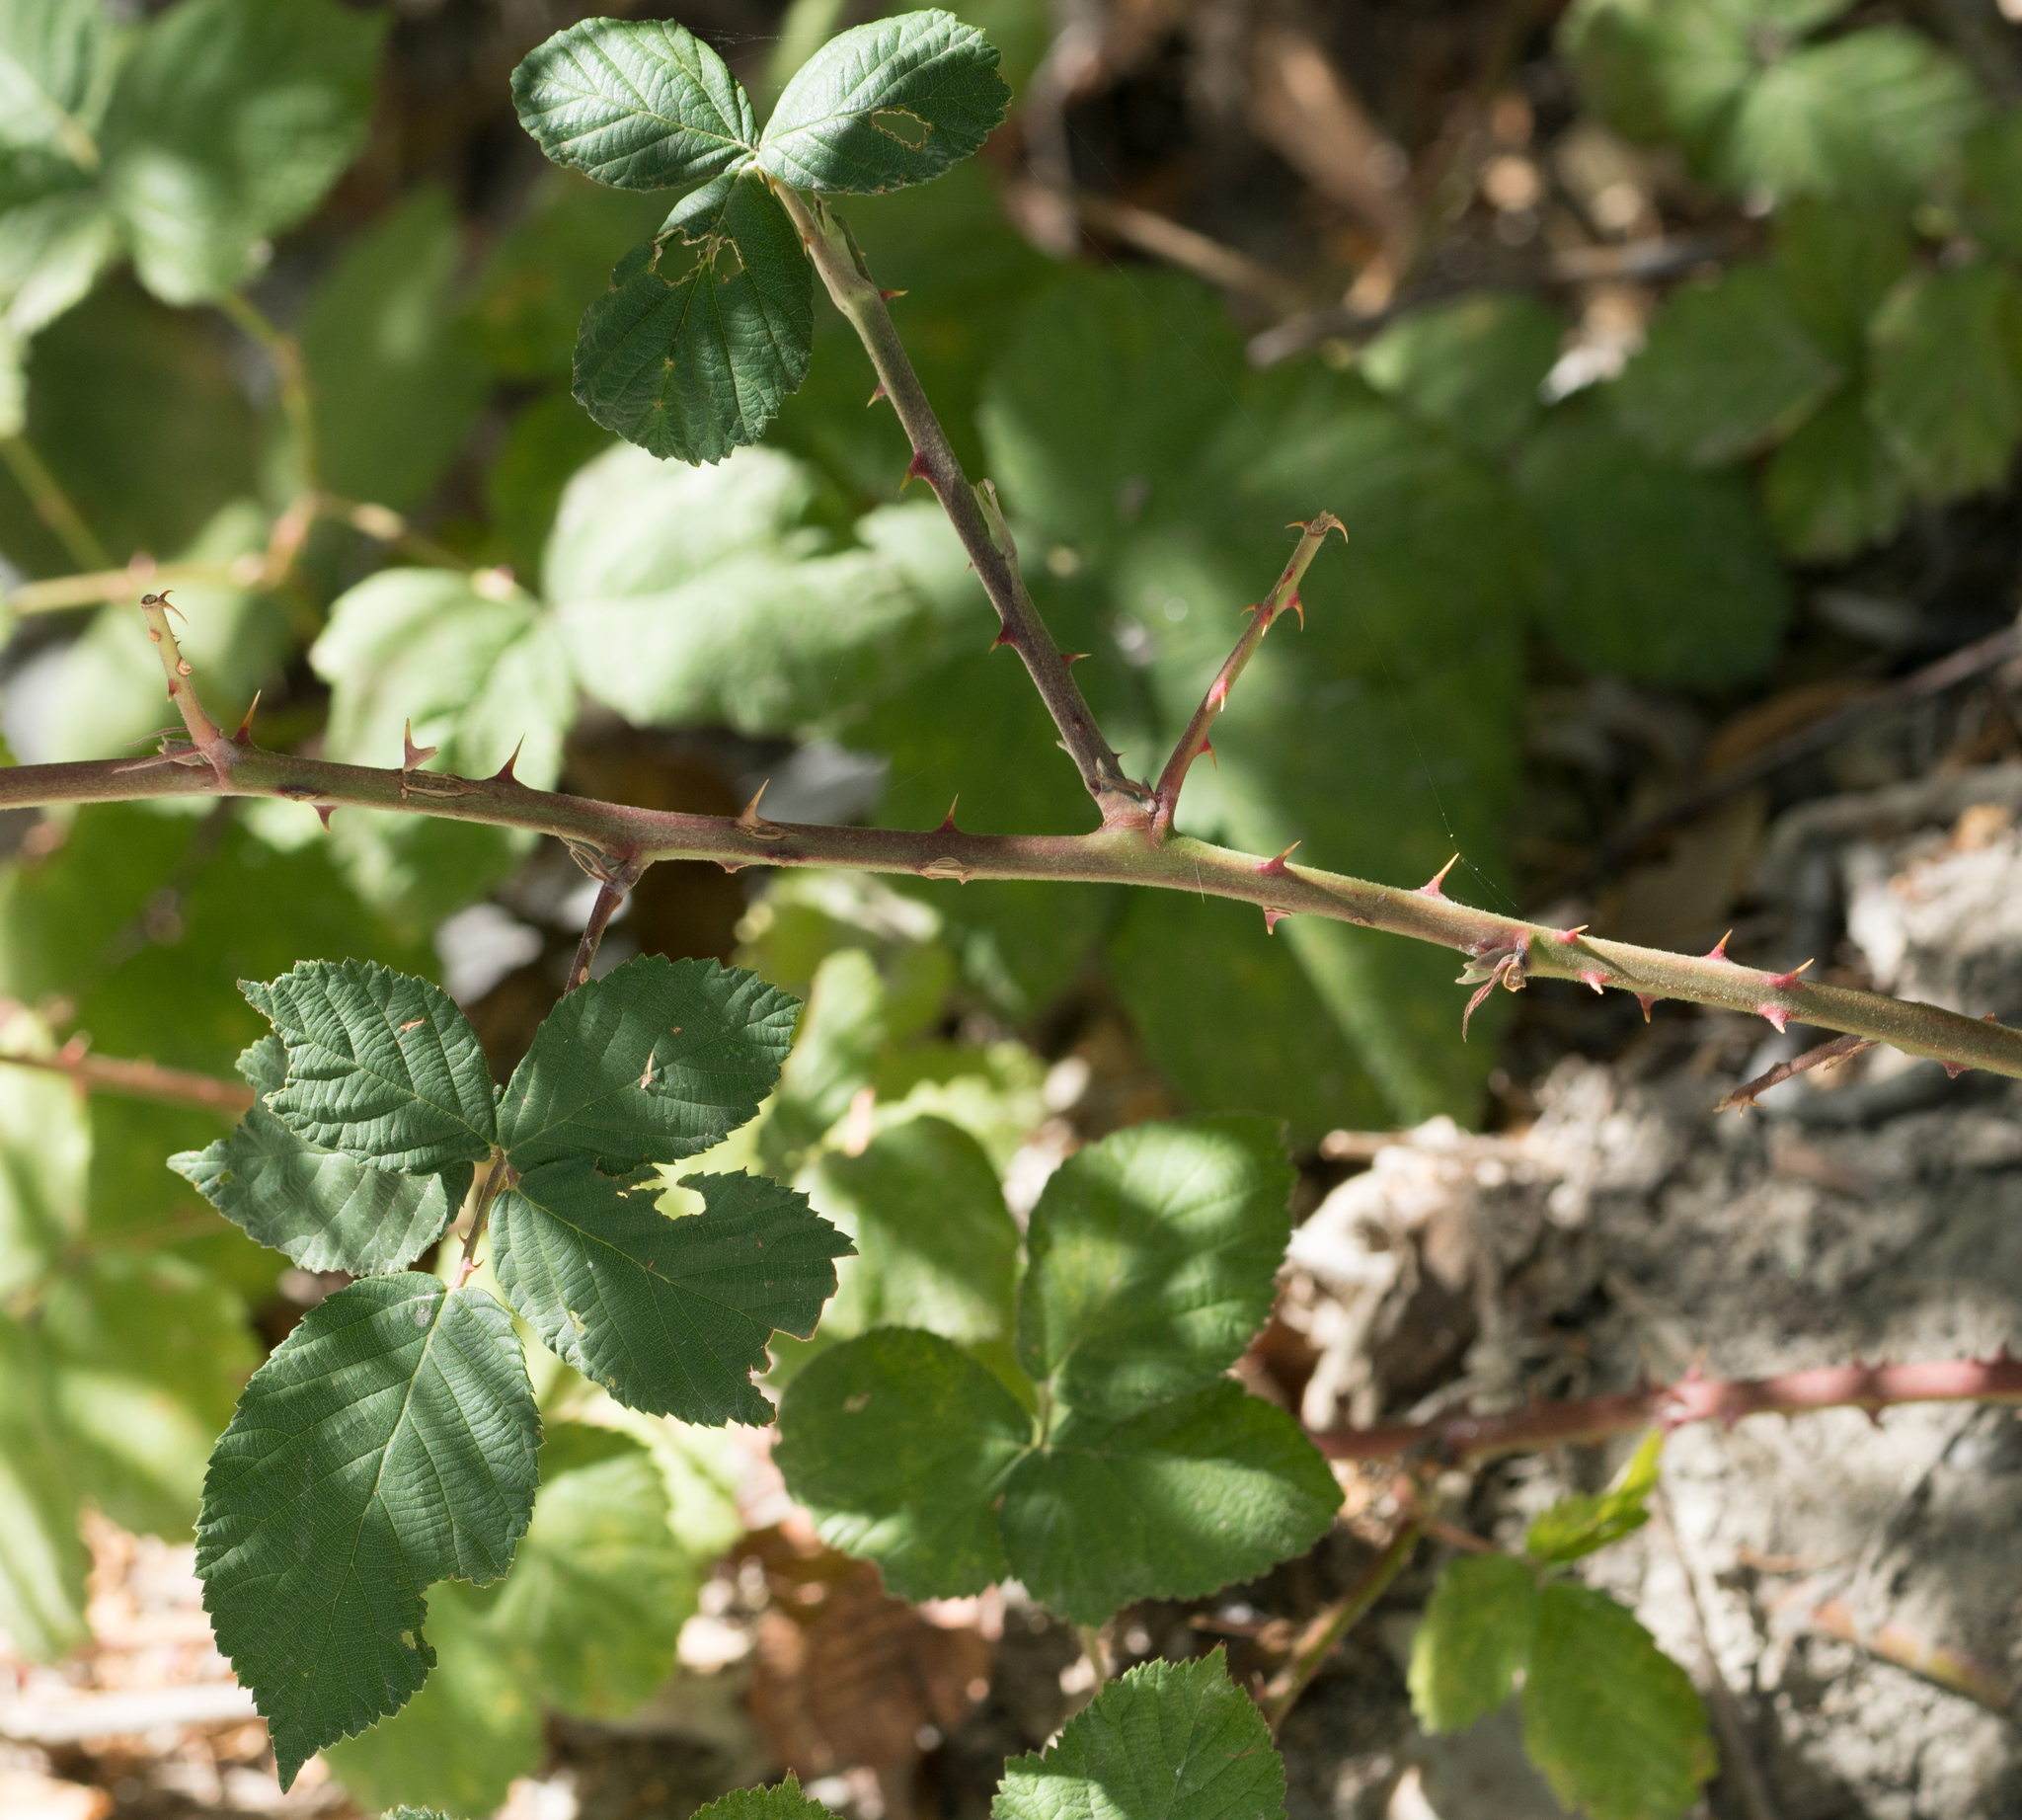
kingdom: Plantae
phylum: Tracheophyta
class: Magnoliopsida
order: Rosales
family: Rosaceae
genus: Rubus
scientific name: Rubus armeniacus
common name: Himalayan blackberry
